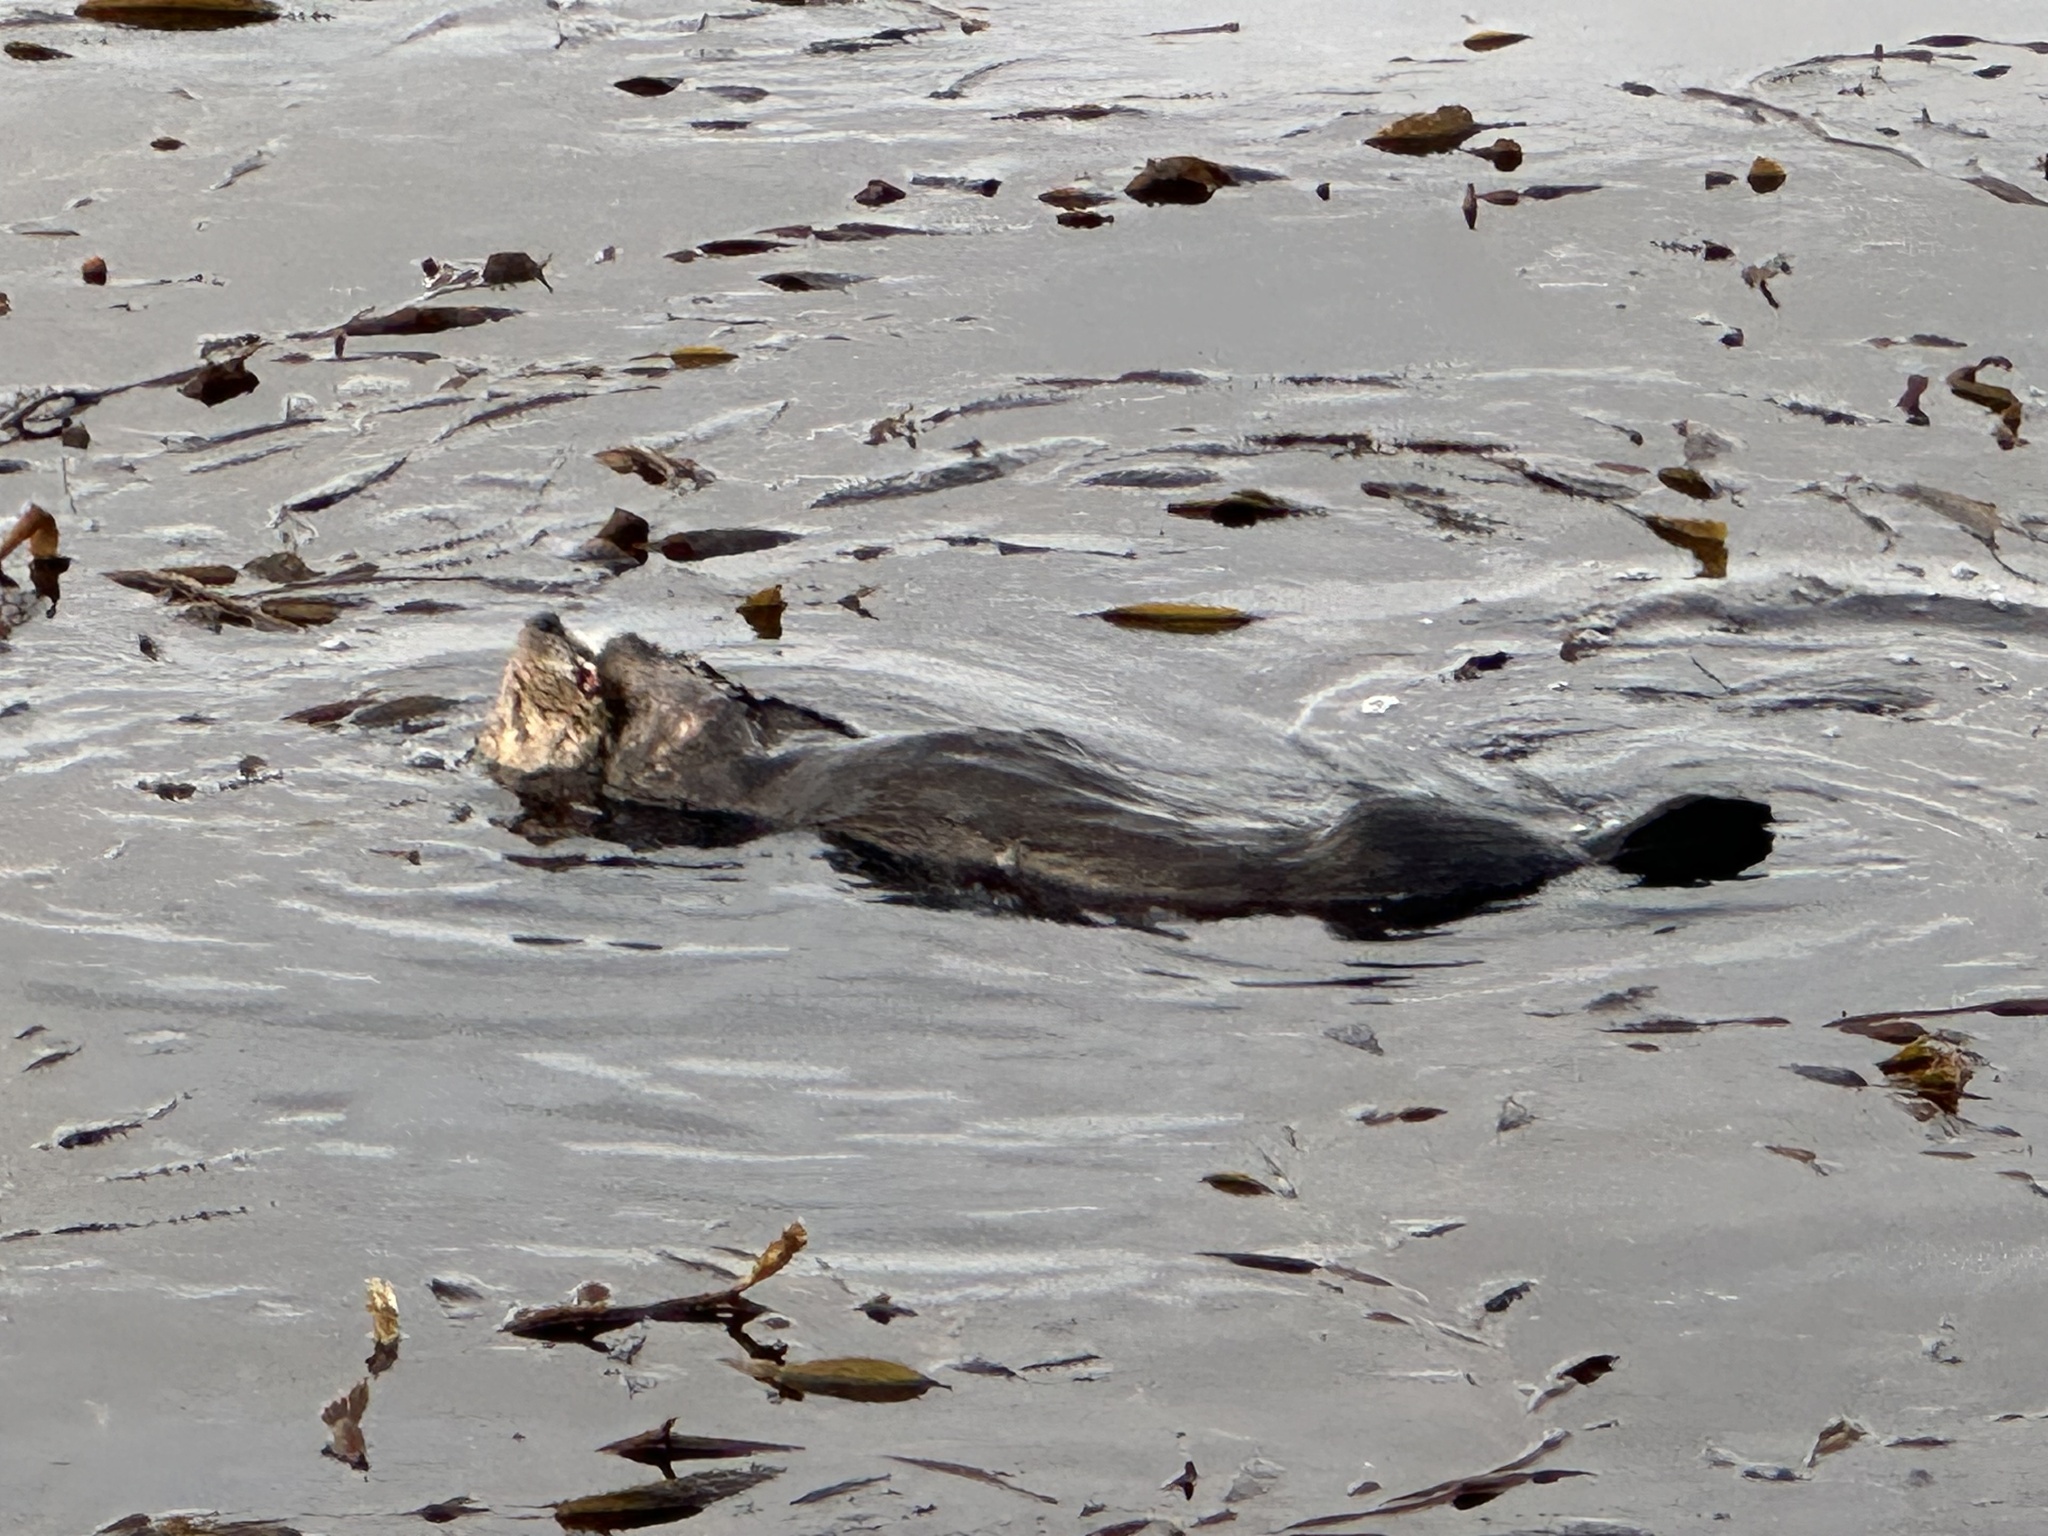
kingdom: Animalia
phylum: Chordata
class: Mammalia
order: Carnivora
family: Mustelidae
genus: Enhydra
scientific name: Enhydra lutris
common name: Sea otter
